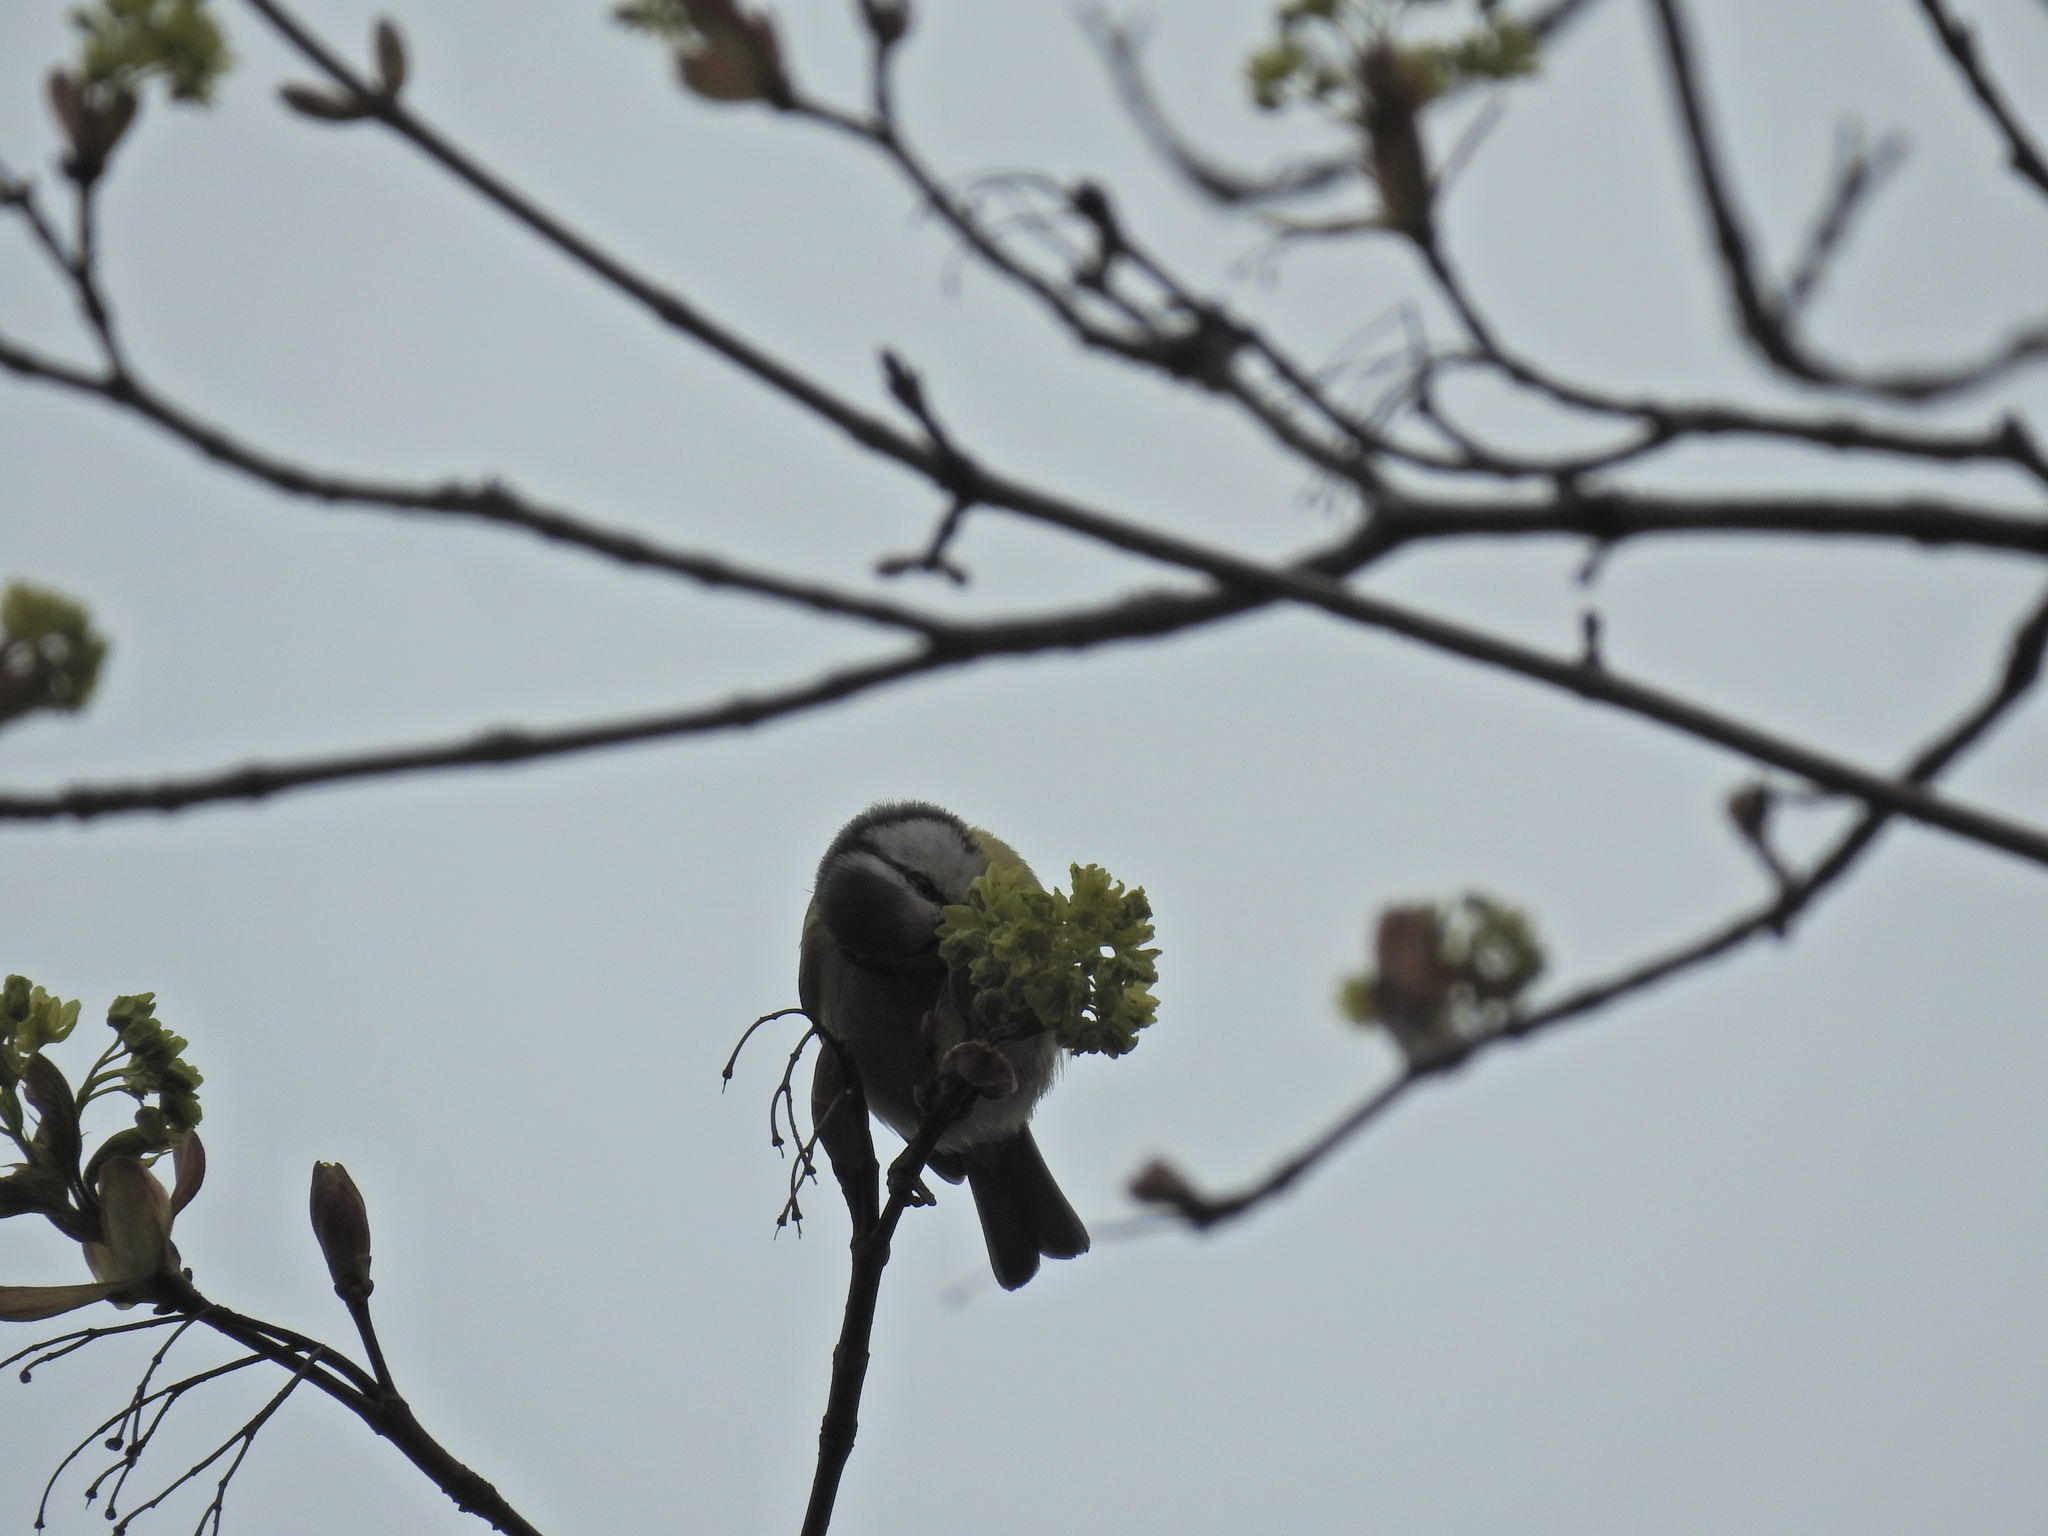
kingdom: Animalia
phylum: Chordata
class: Aves
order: Passeriformes
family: Paridae
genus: Cyanistes
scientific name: Cyanistes caeruleus
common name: Eurasian blue tit
